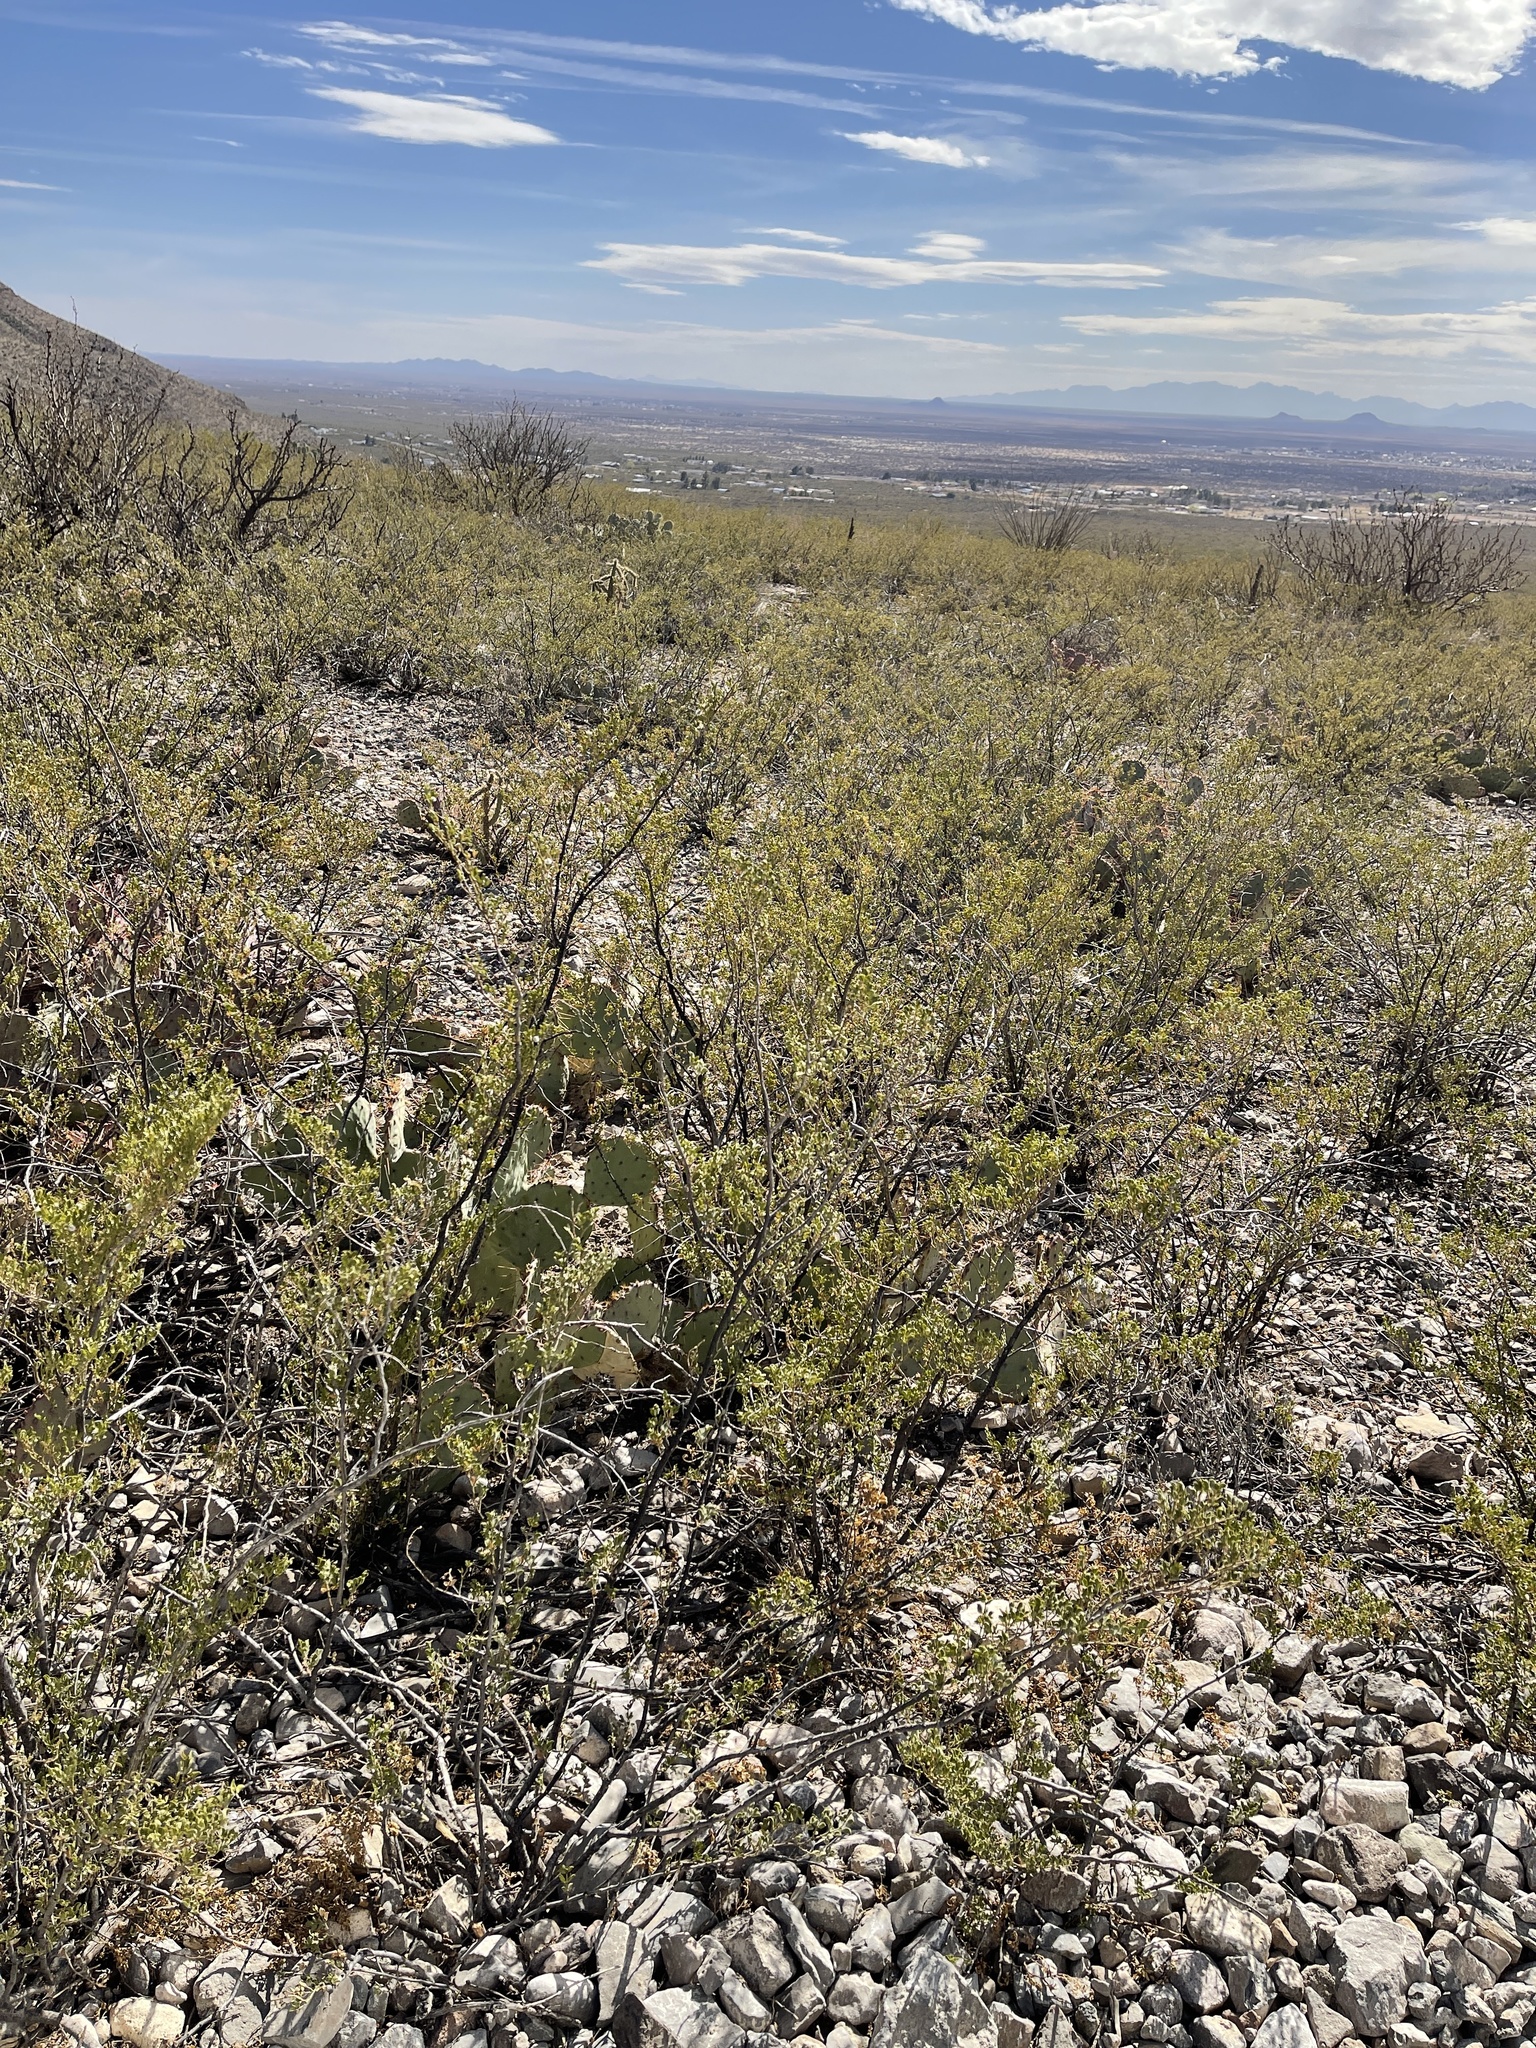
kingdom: Plantae
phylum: Tracheophyta
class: Magnoliopsida
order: Zygophyllales
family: Zygophyllaceae
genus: Larrea
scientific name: Larrea tridentata
